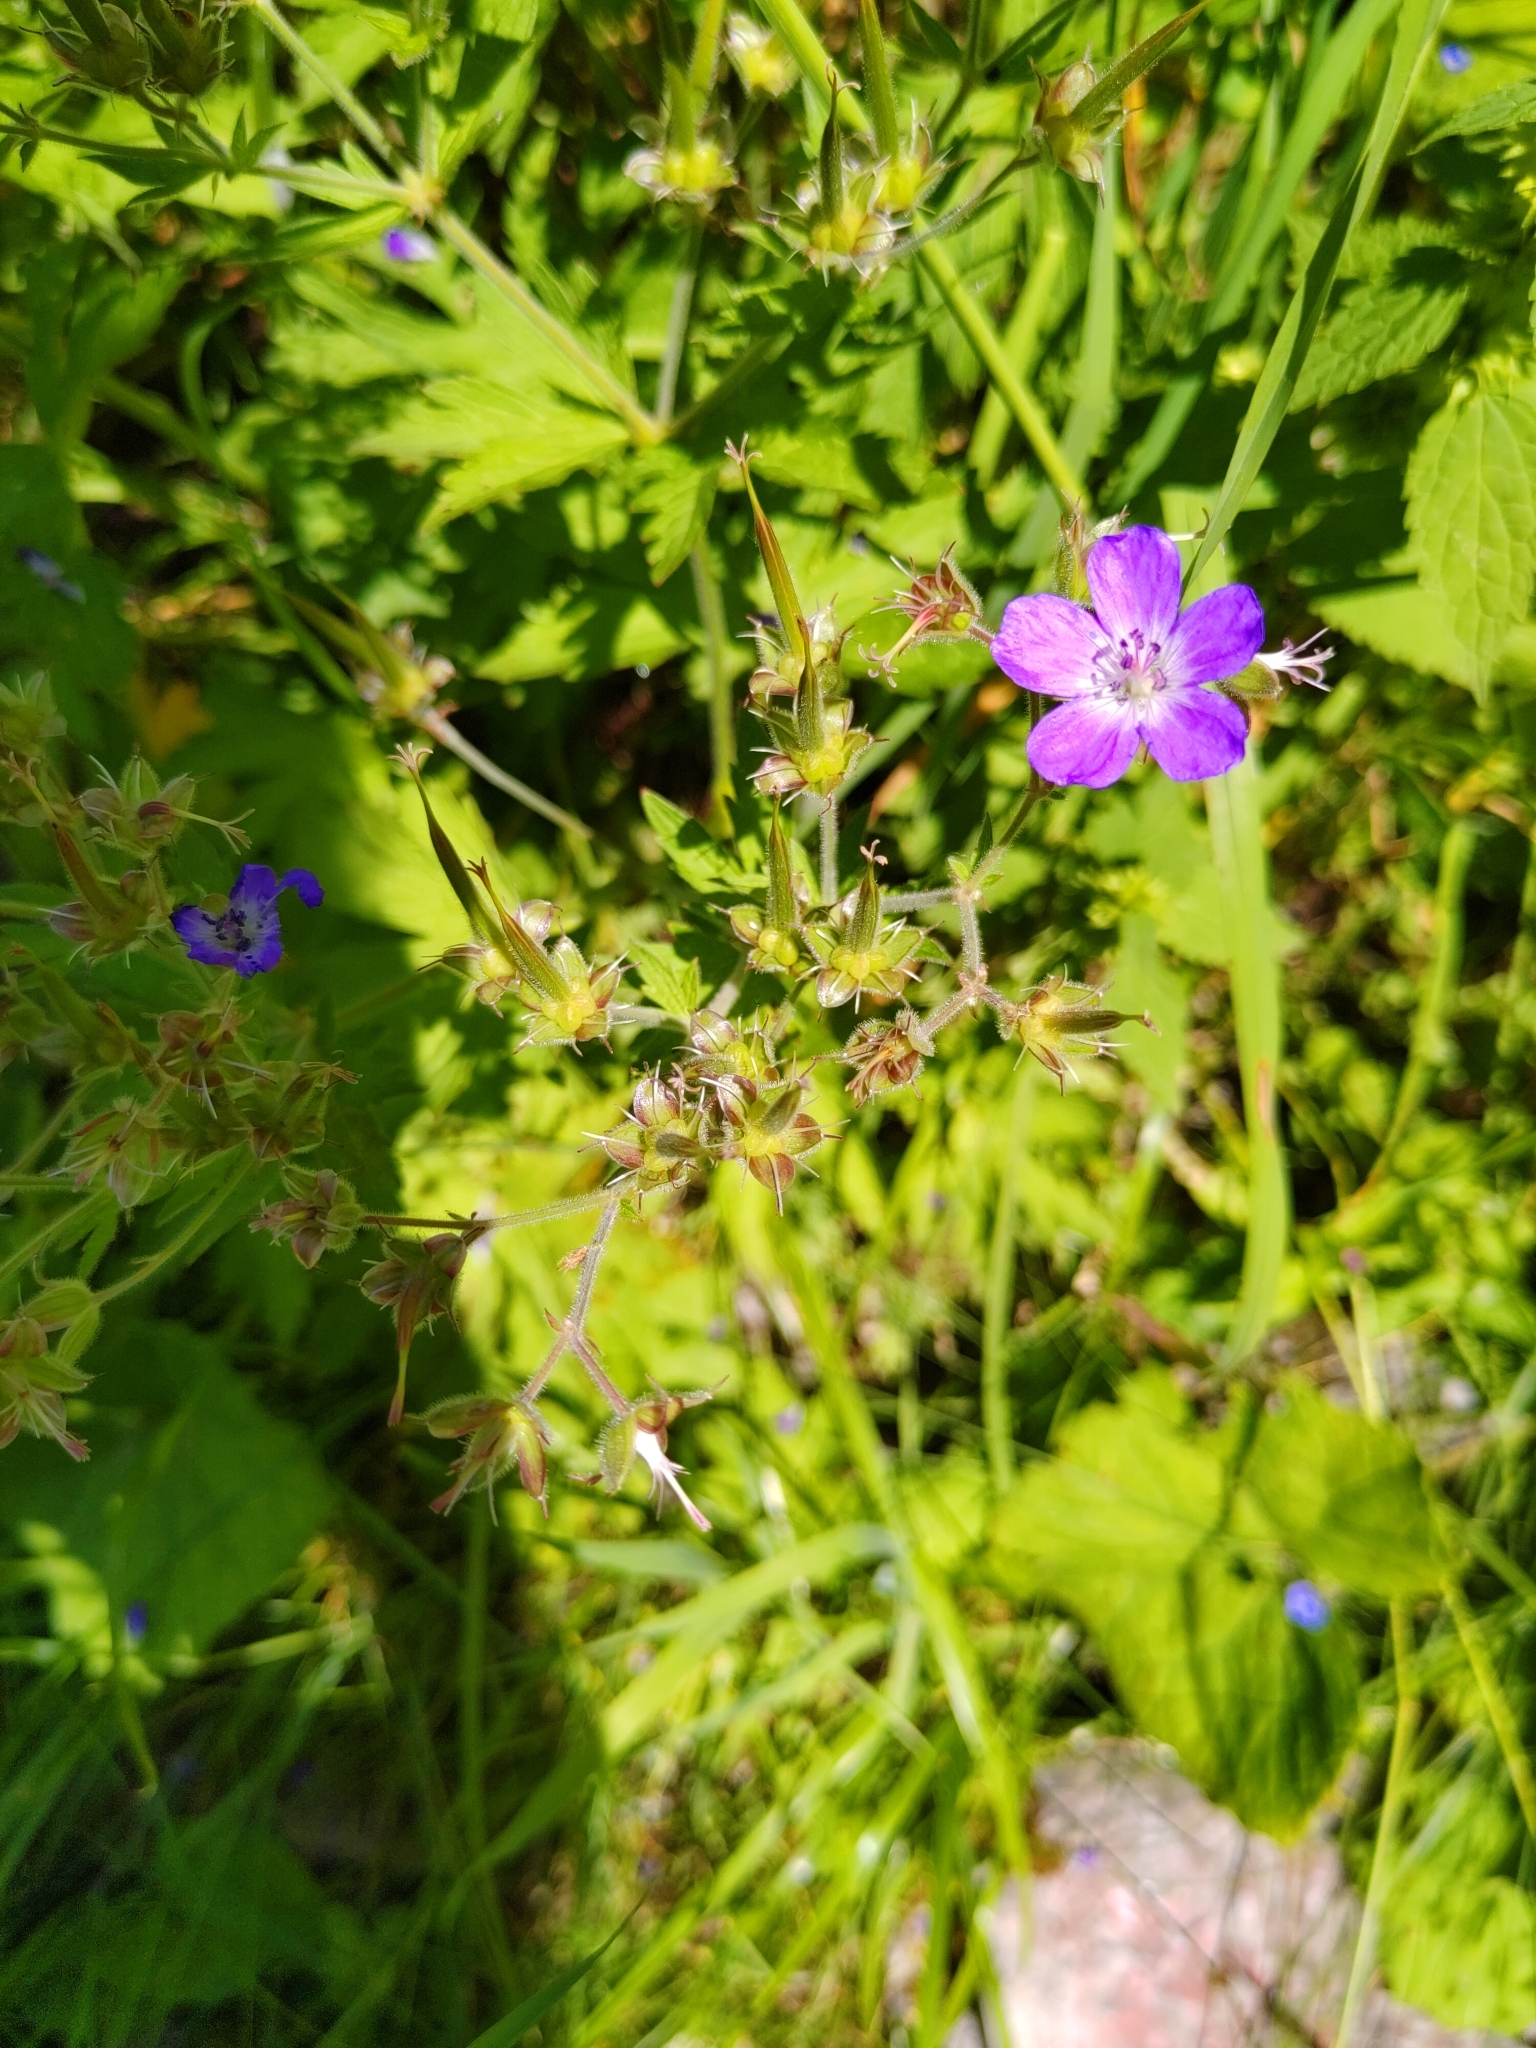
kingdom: Plantae
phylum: Tracheophyta
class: Magnoliopsida
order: Geraniales
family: Geraniaceae
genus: Geranium
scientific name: Geranium sylvaticum
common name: Wood crane's-bill
